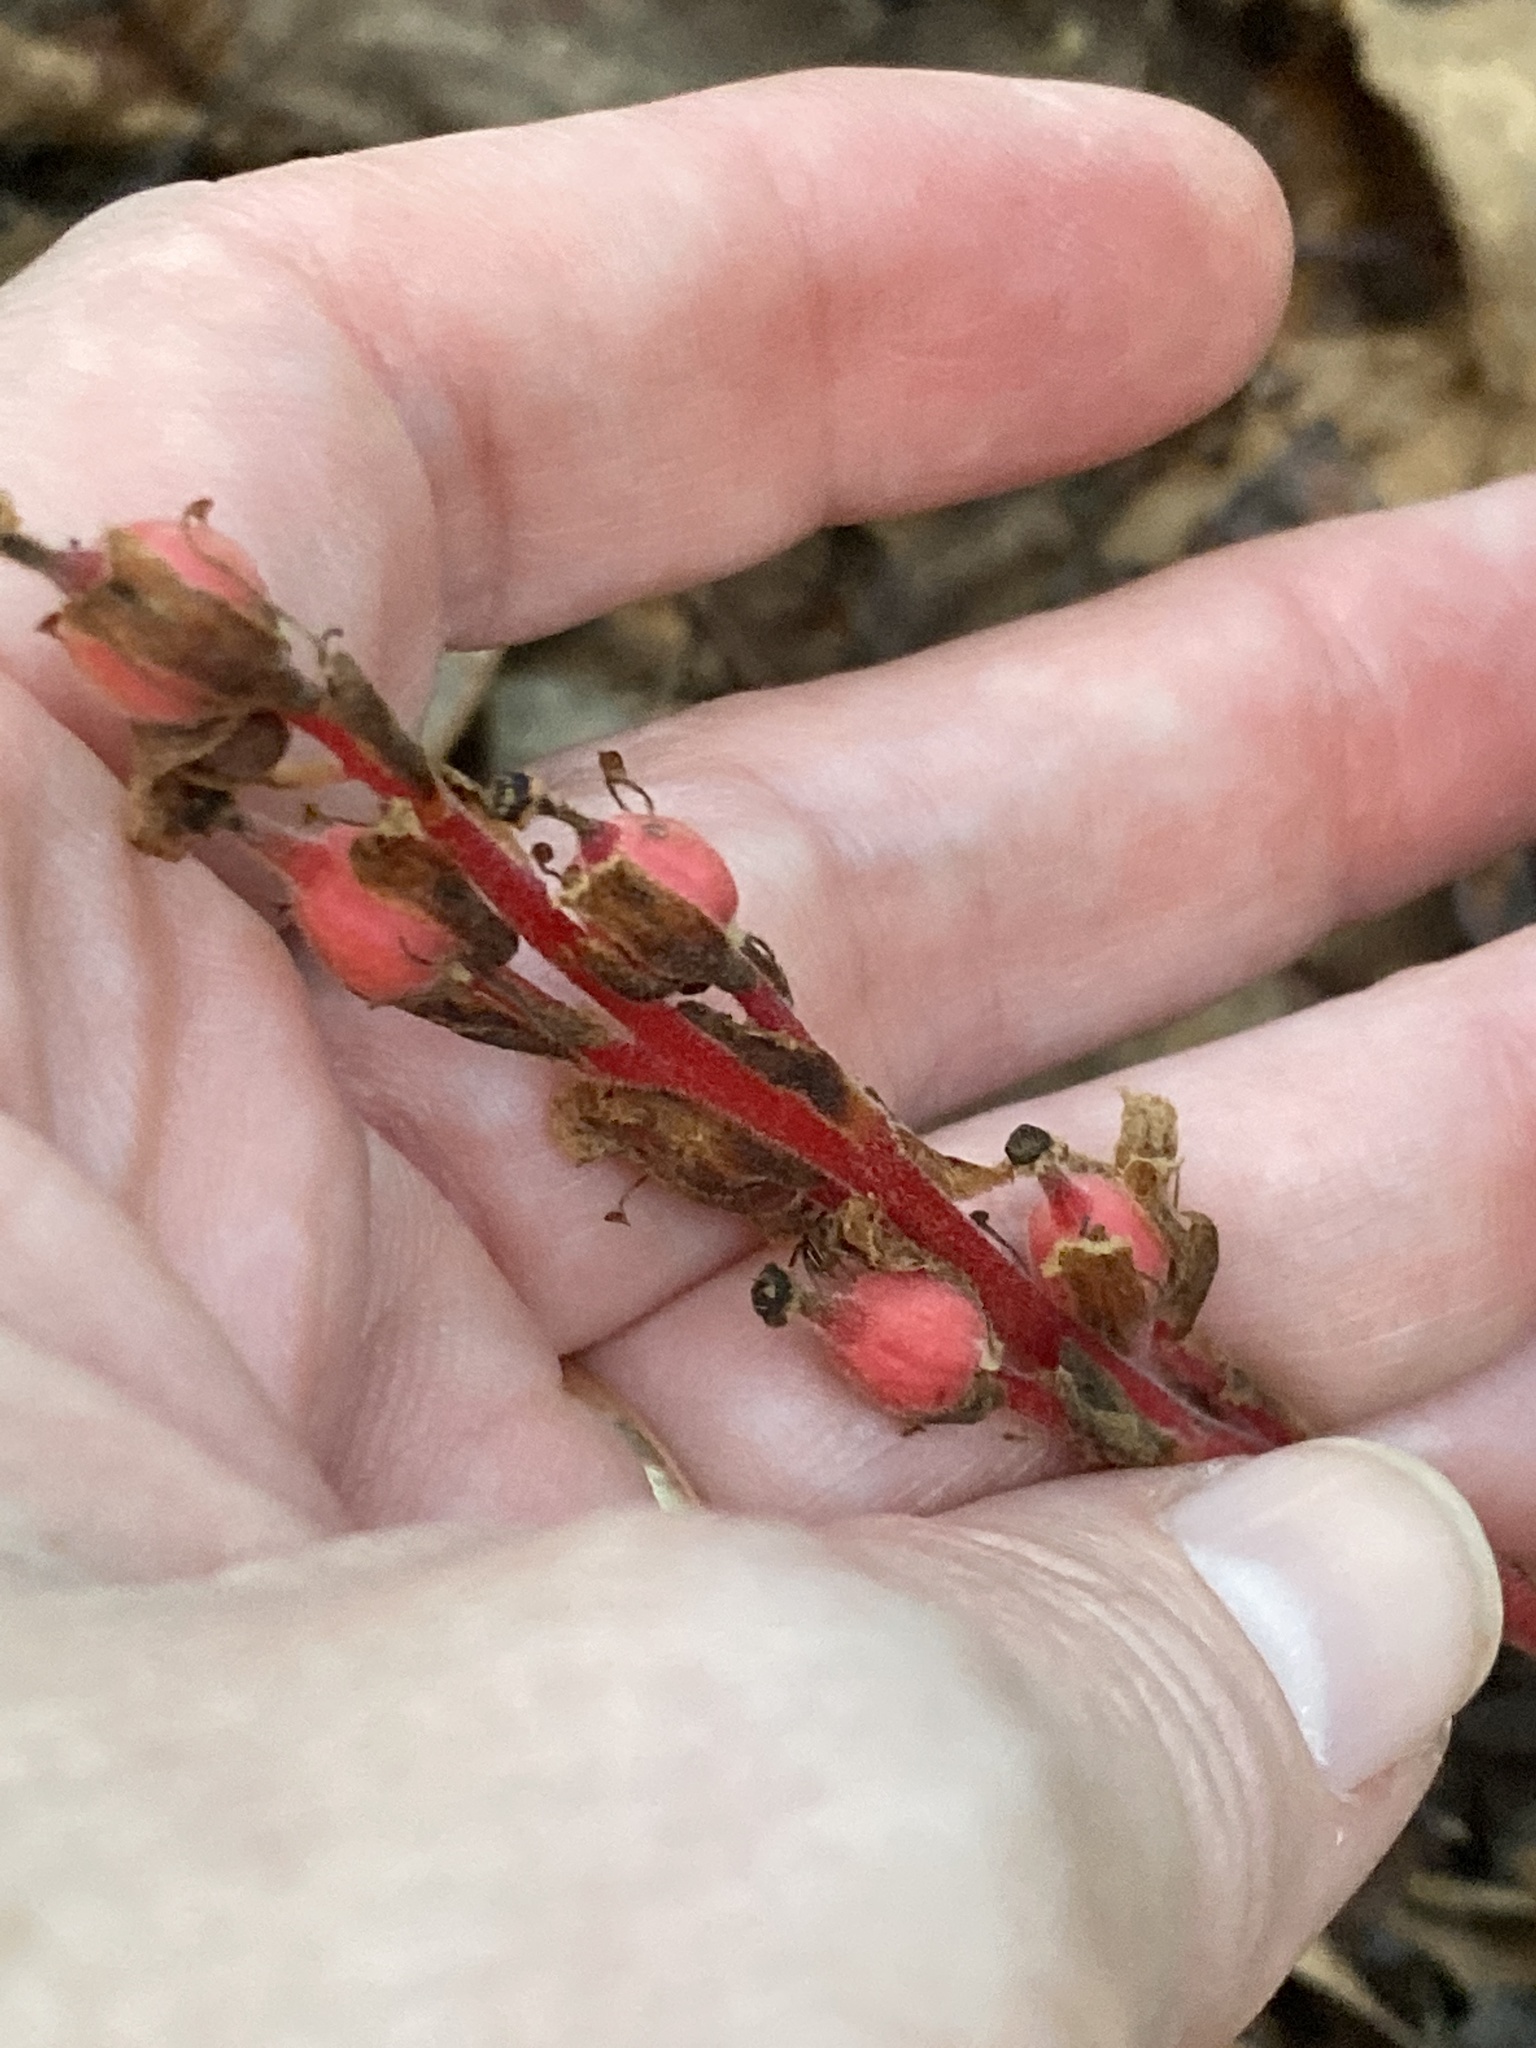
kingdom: Plantae
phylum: Tracheophyta
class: Magnoliopsida
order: Ericales
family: Ericaceae
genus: Hypopitys
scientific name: Hypopitys monotropa
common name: Yellow bird's-nest
